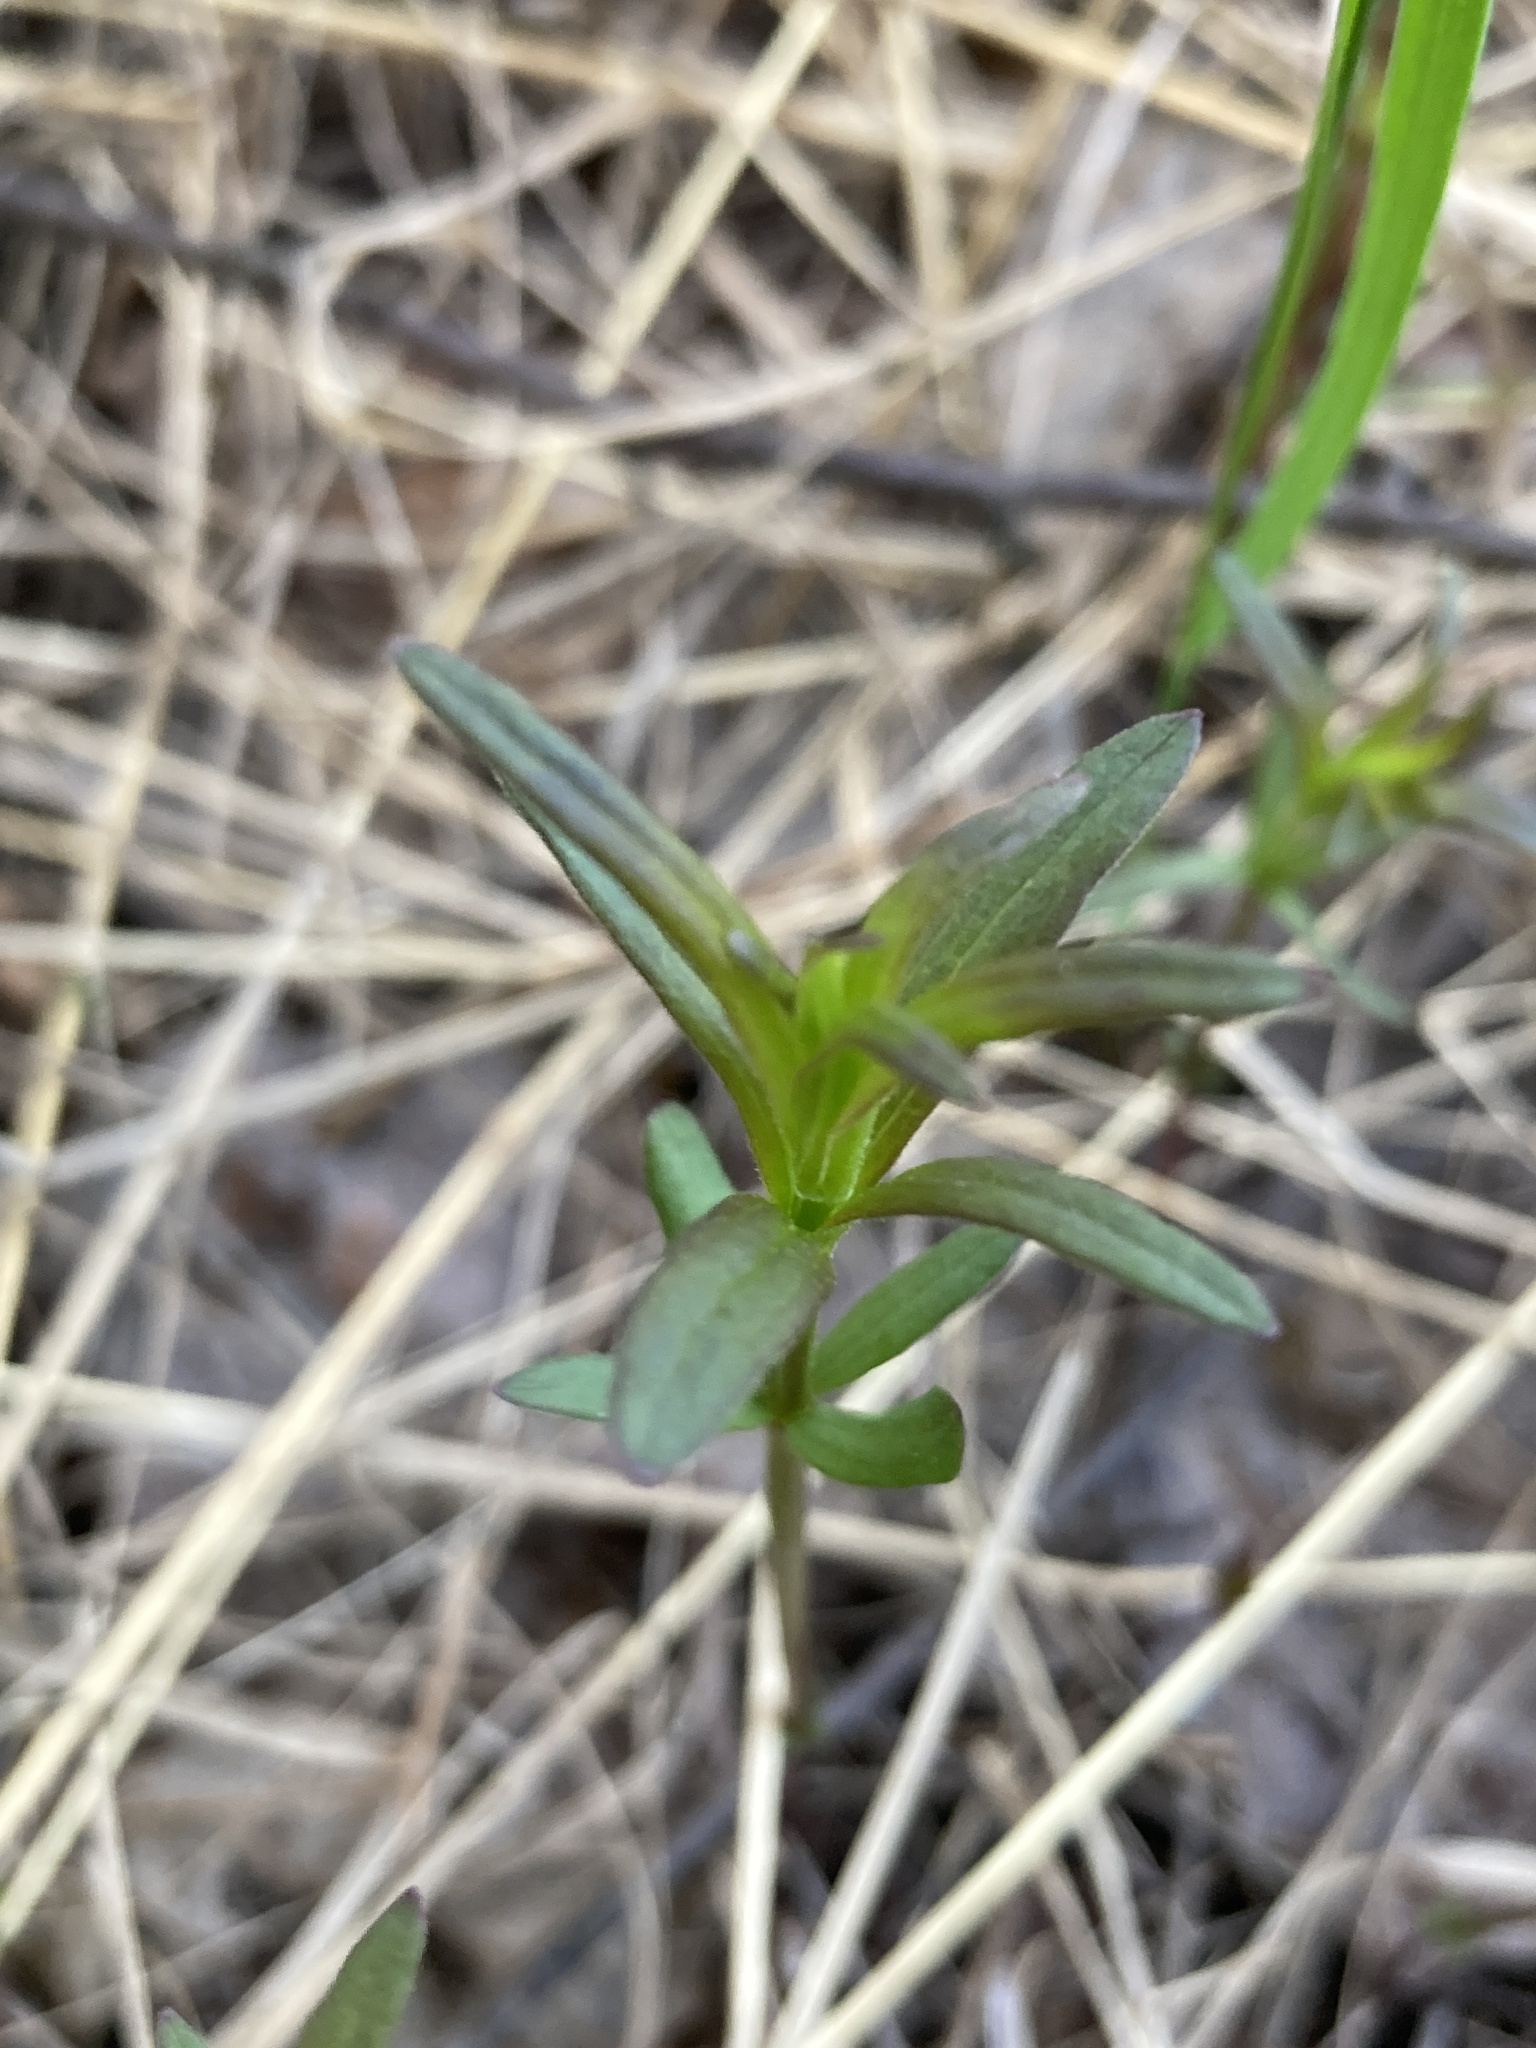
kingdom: Plantae
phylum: Tracheophyta
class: Magnoliopsida
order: Gentianales
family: Rubiaceae
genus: Galium
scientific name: Galium boreale
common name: Northern bedstraw
